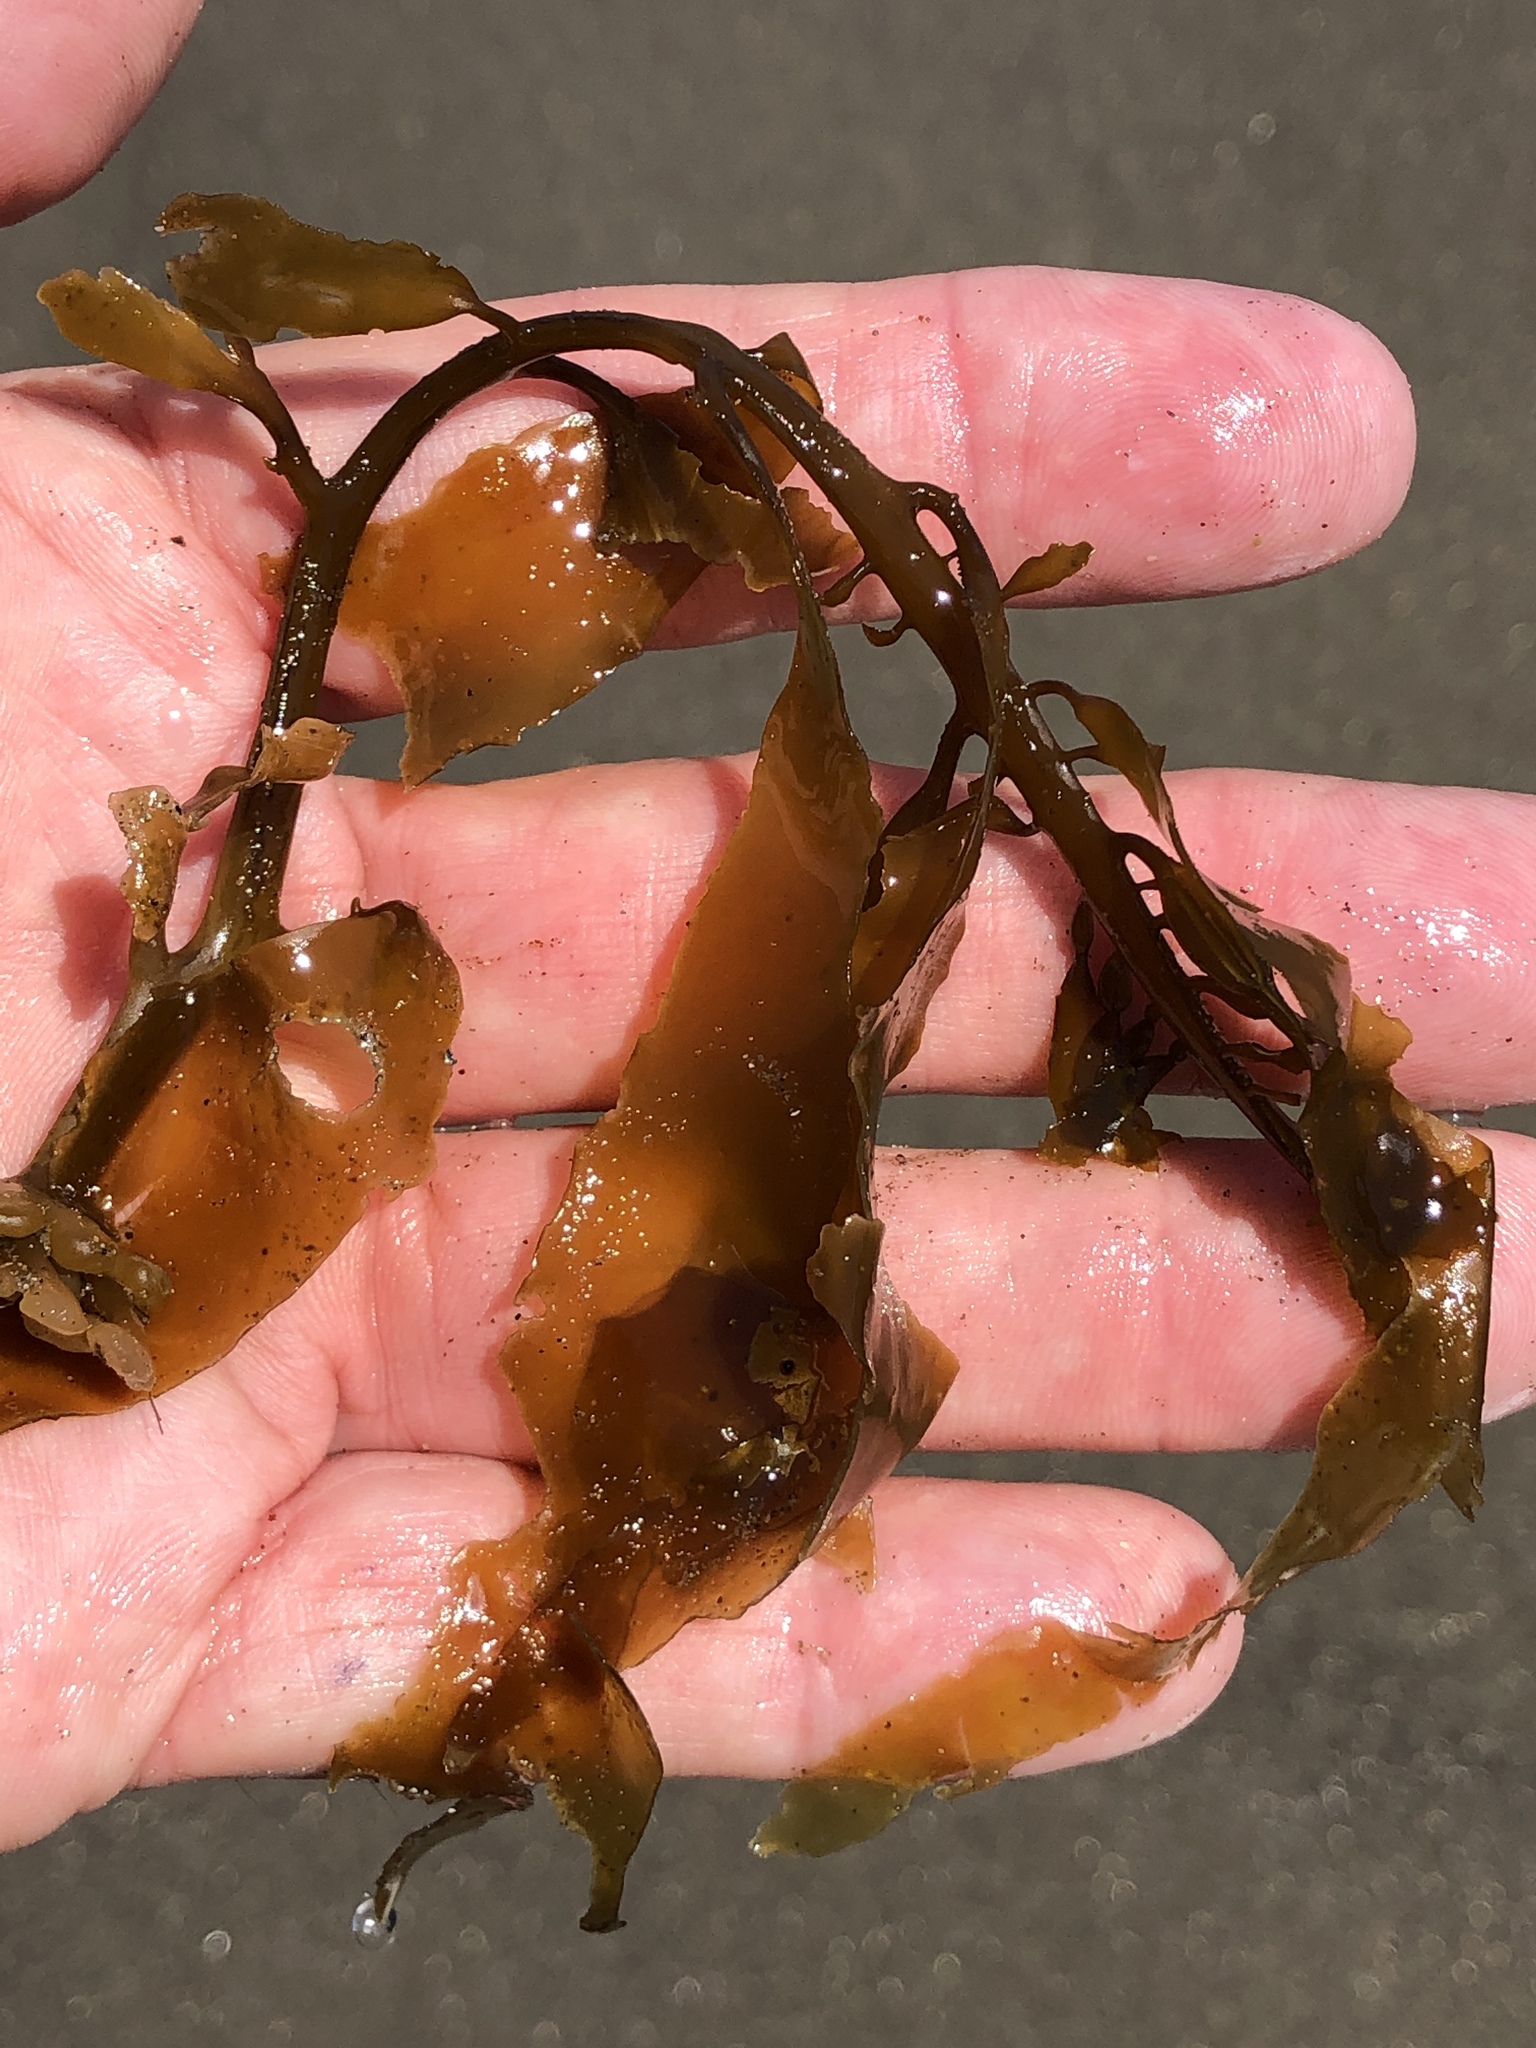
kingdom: Chromista
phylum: Ochrophyta
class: Phaeophyceae
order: Laminariales
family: Lessoniaceae
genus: Egregia
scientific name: Egregia menziesii
